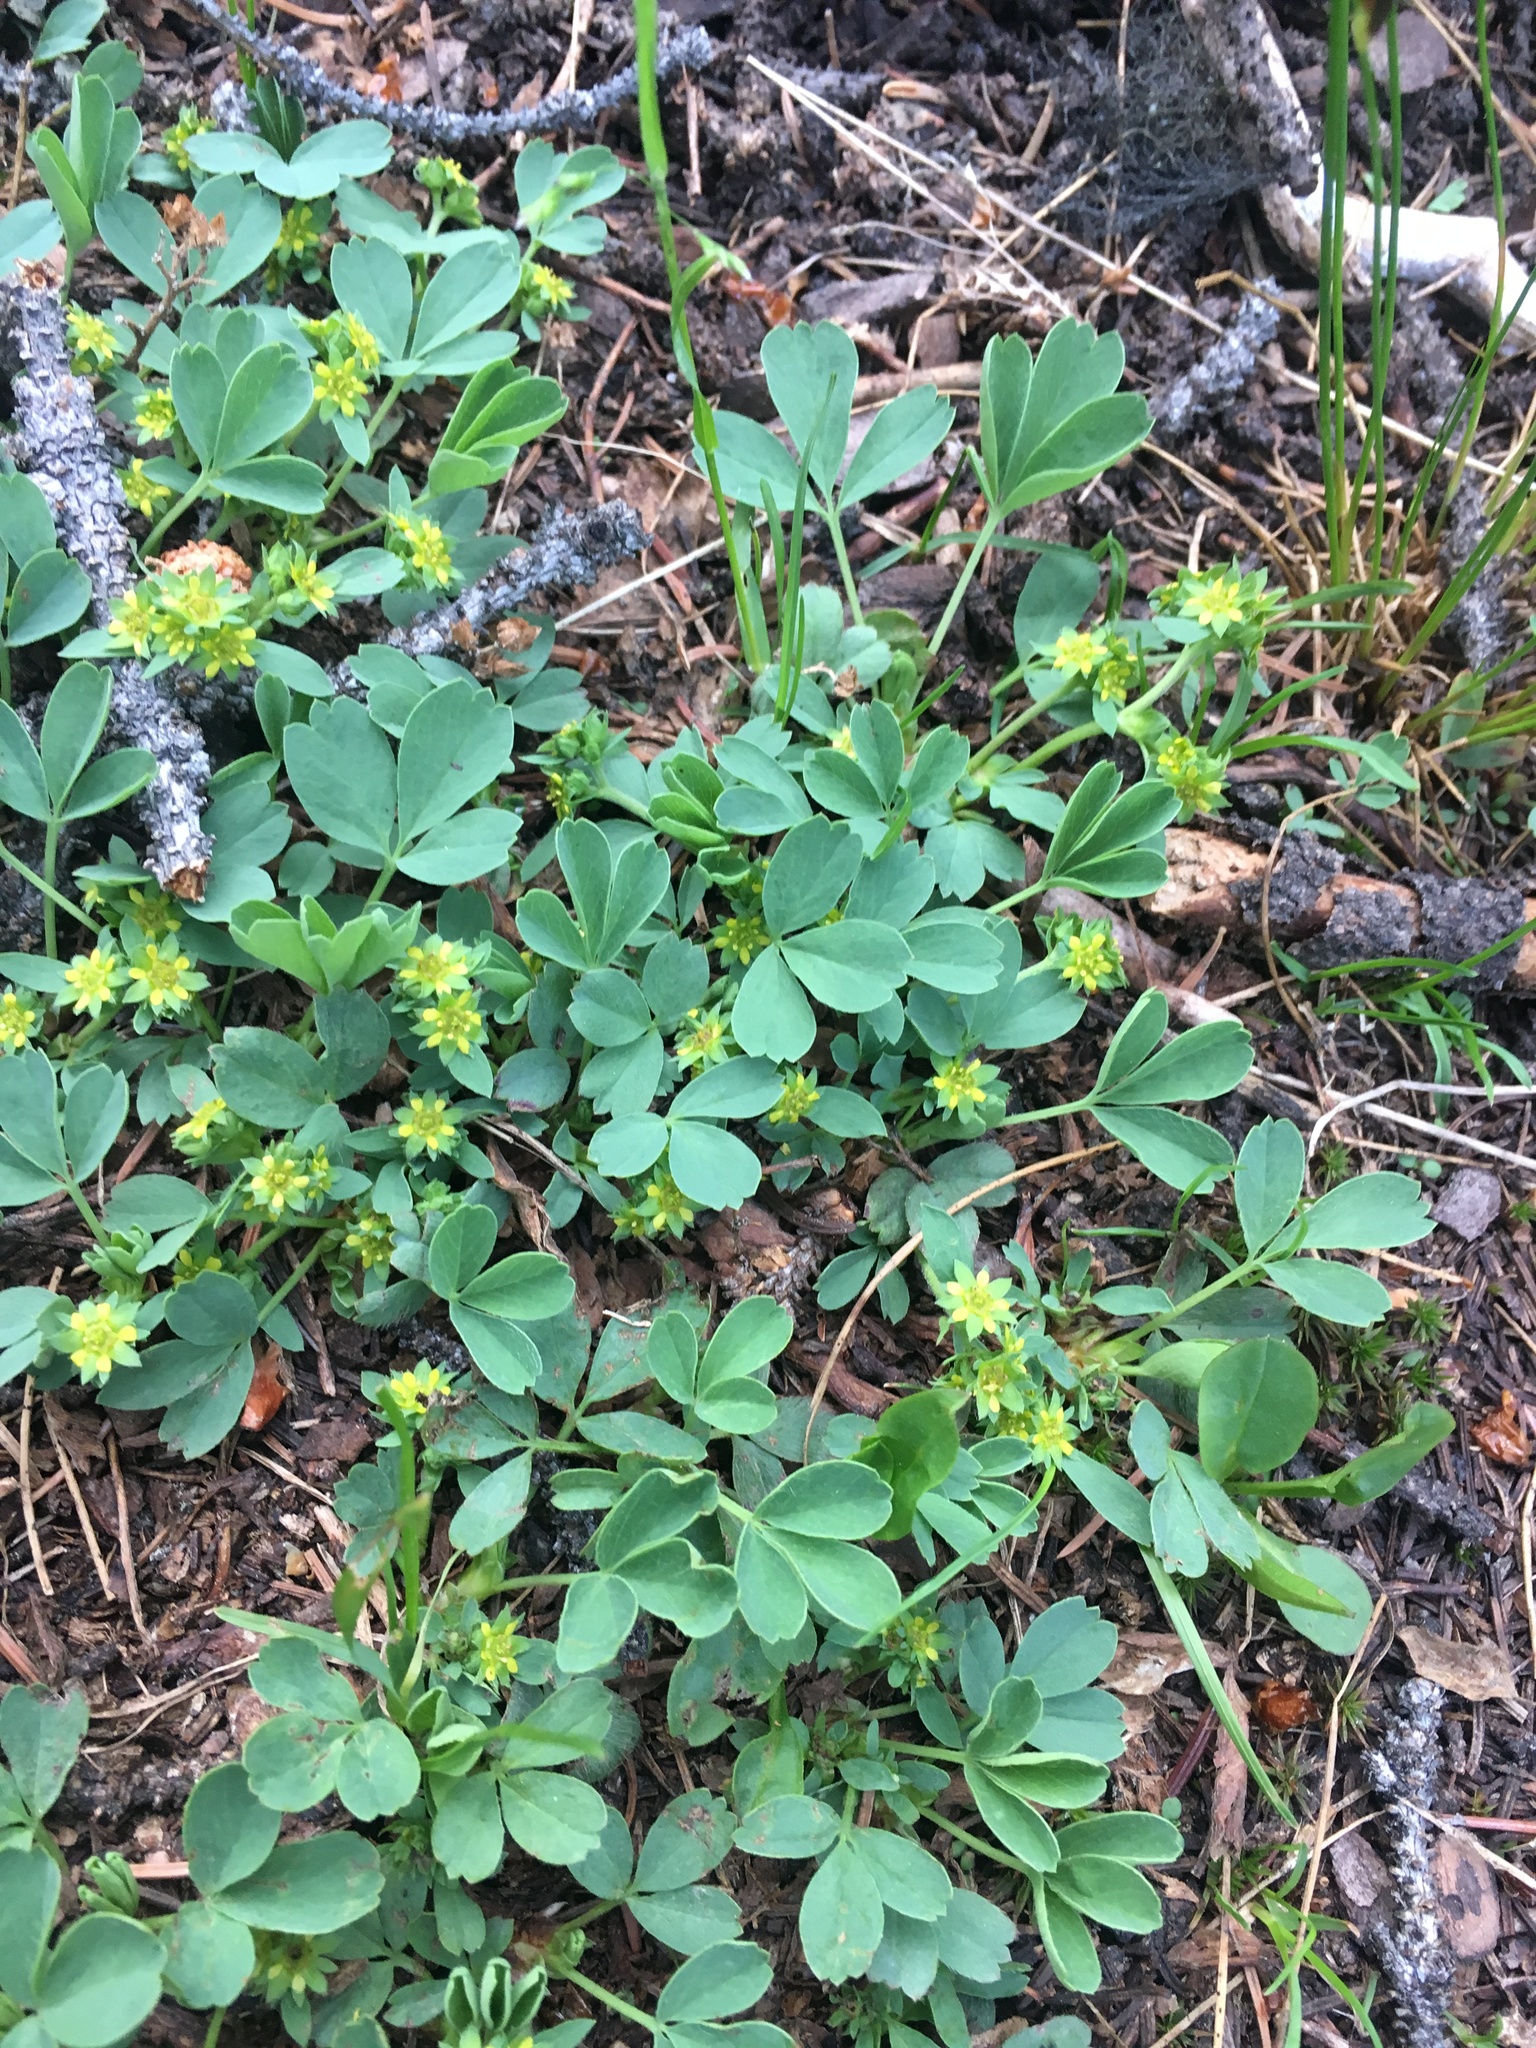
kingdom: Plantae
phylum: Tracheophyta
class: Magnoliopsida
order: Rosales
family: Rosaceae
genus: Sibbaldia
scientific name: Sibbaldia procumbens
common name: Creeping sibbaldia
